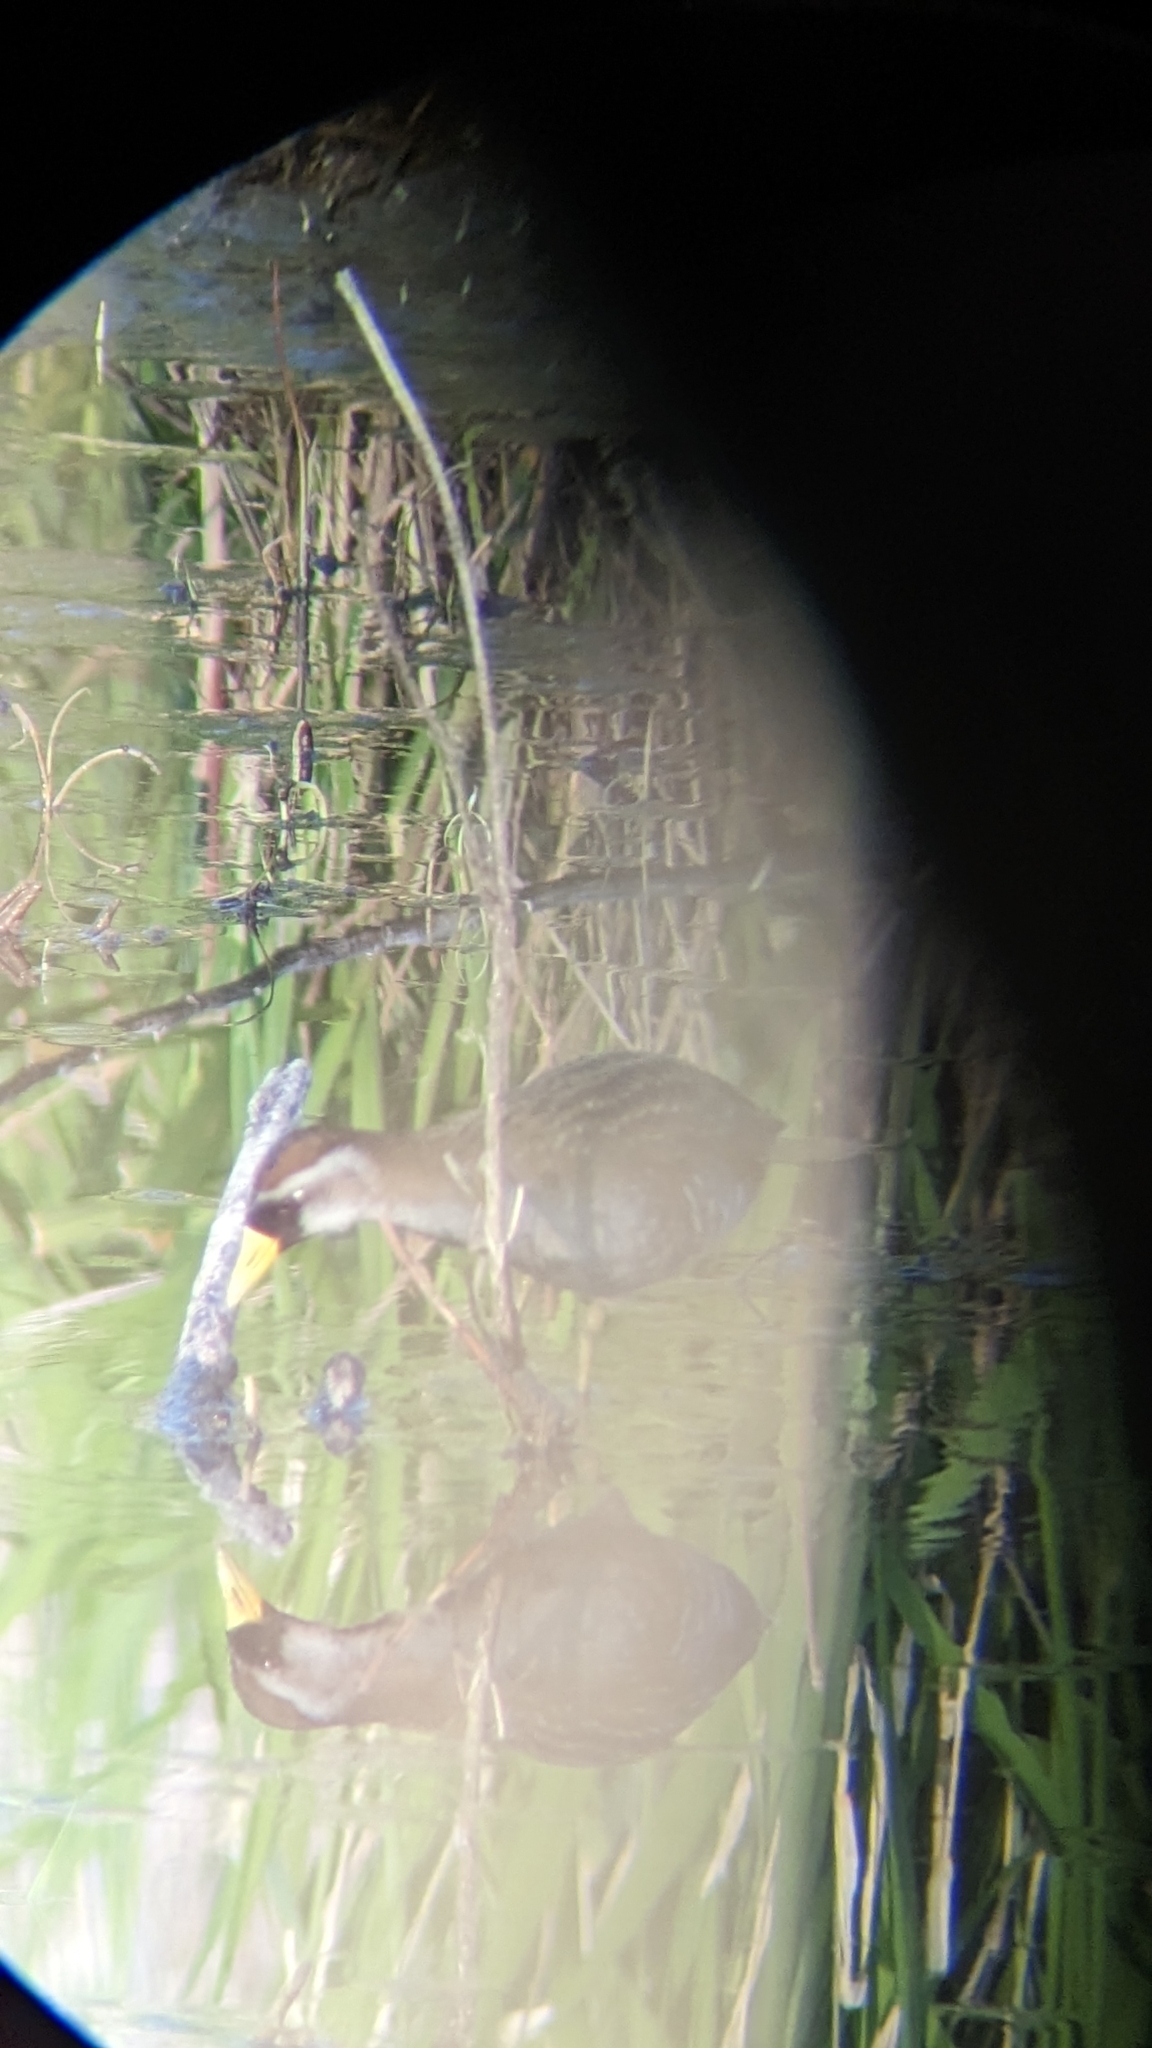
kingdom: Animalia
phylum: Chordata
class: Aves
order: Gruiformes
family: Rallidae
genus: Porzana
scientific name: Porzana carolina
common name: Sora
